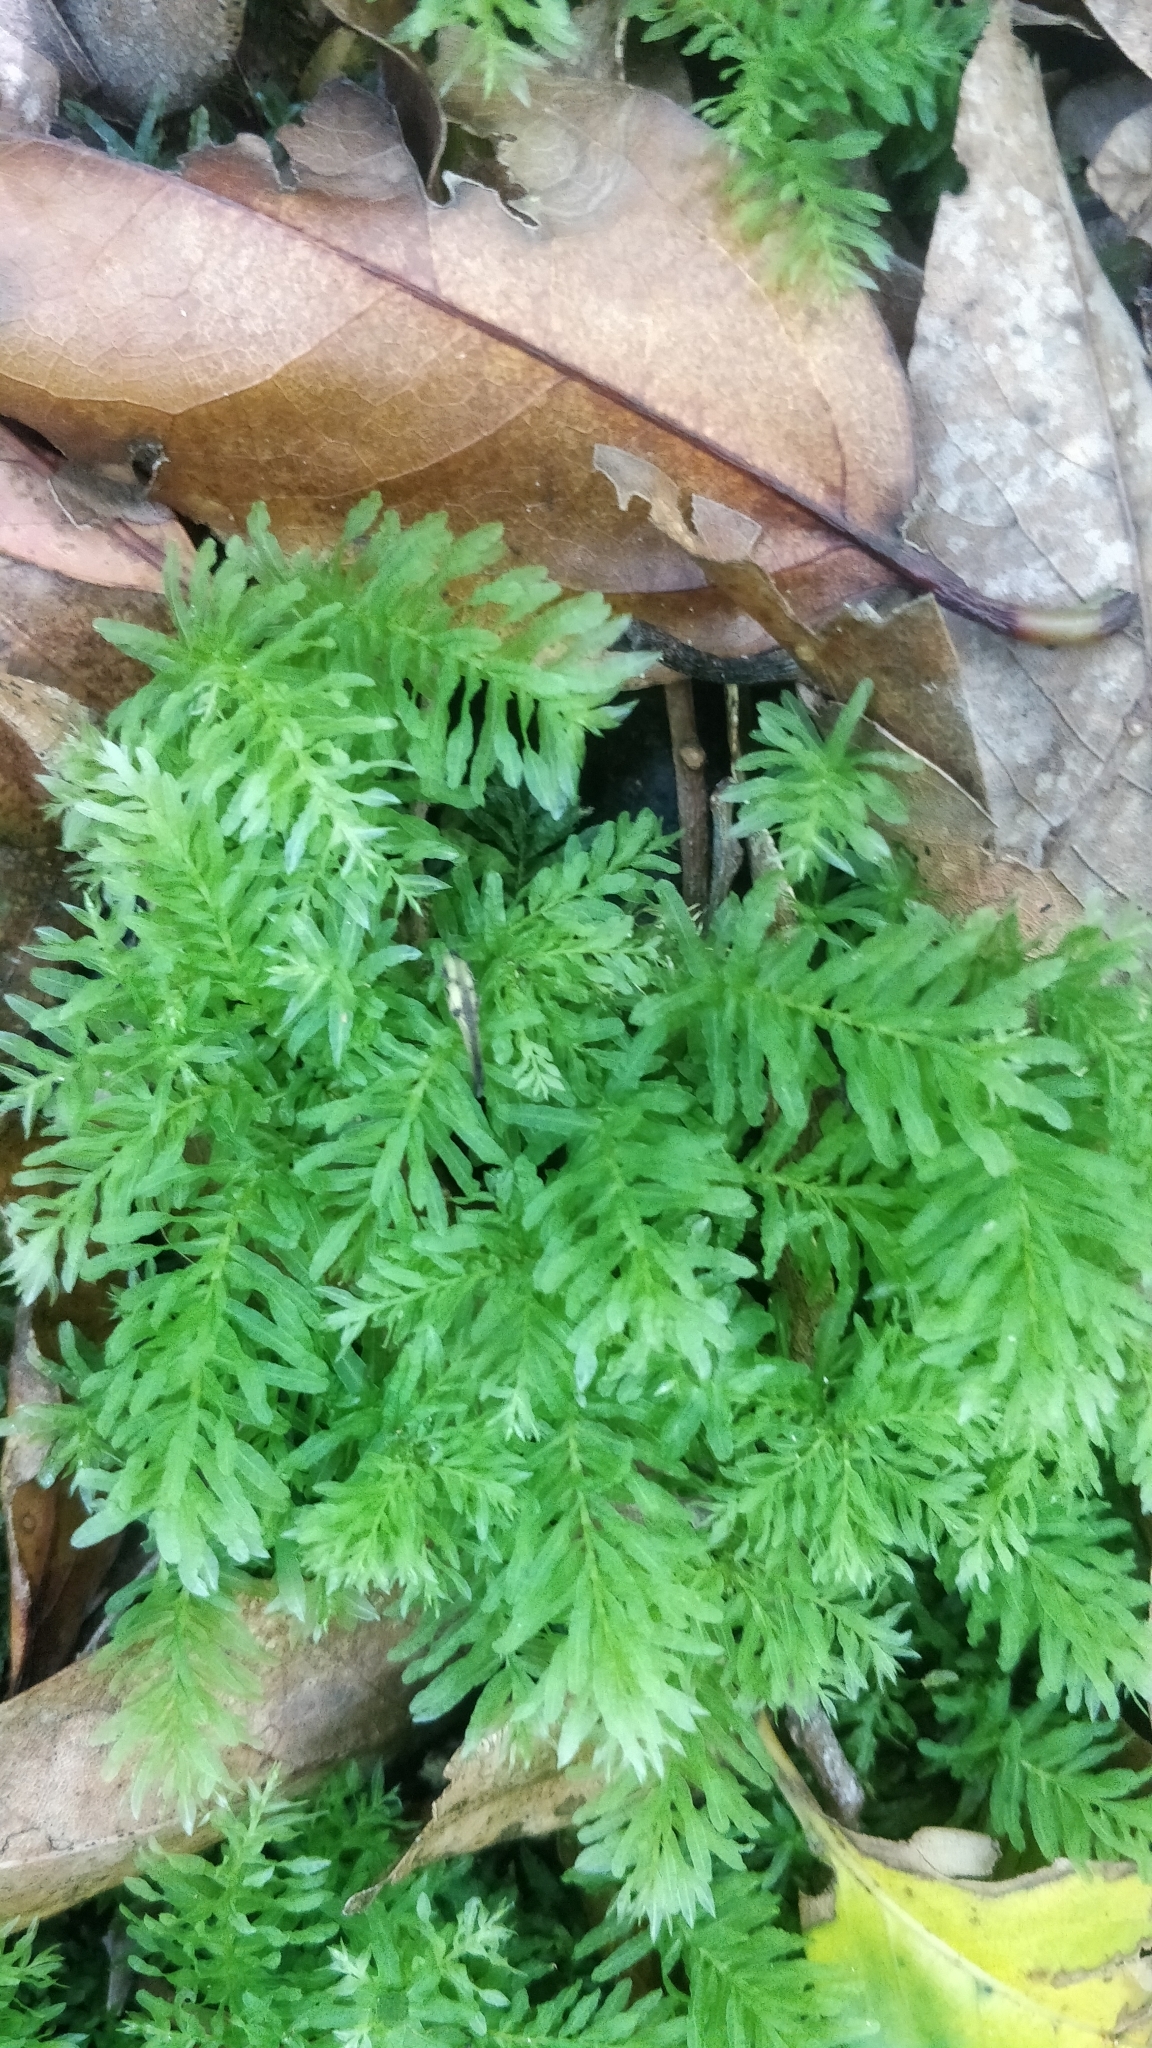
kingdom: Plantae
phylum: Bryophyta
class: Bryopsida
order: Bryales
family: Mniaceae
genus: Plagiomnium
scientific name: Plagiomnium undulatum
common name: Hart's-tongue thyme-moss
